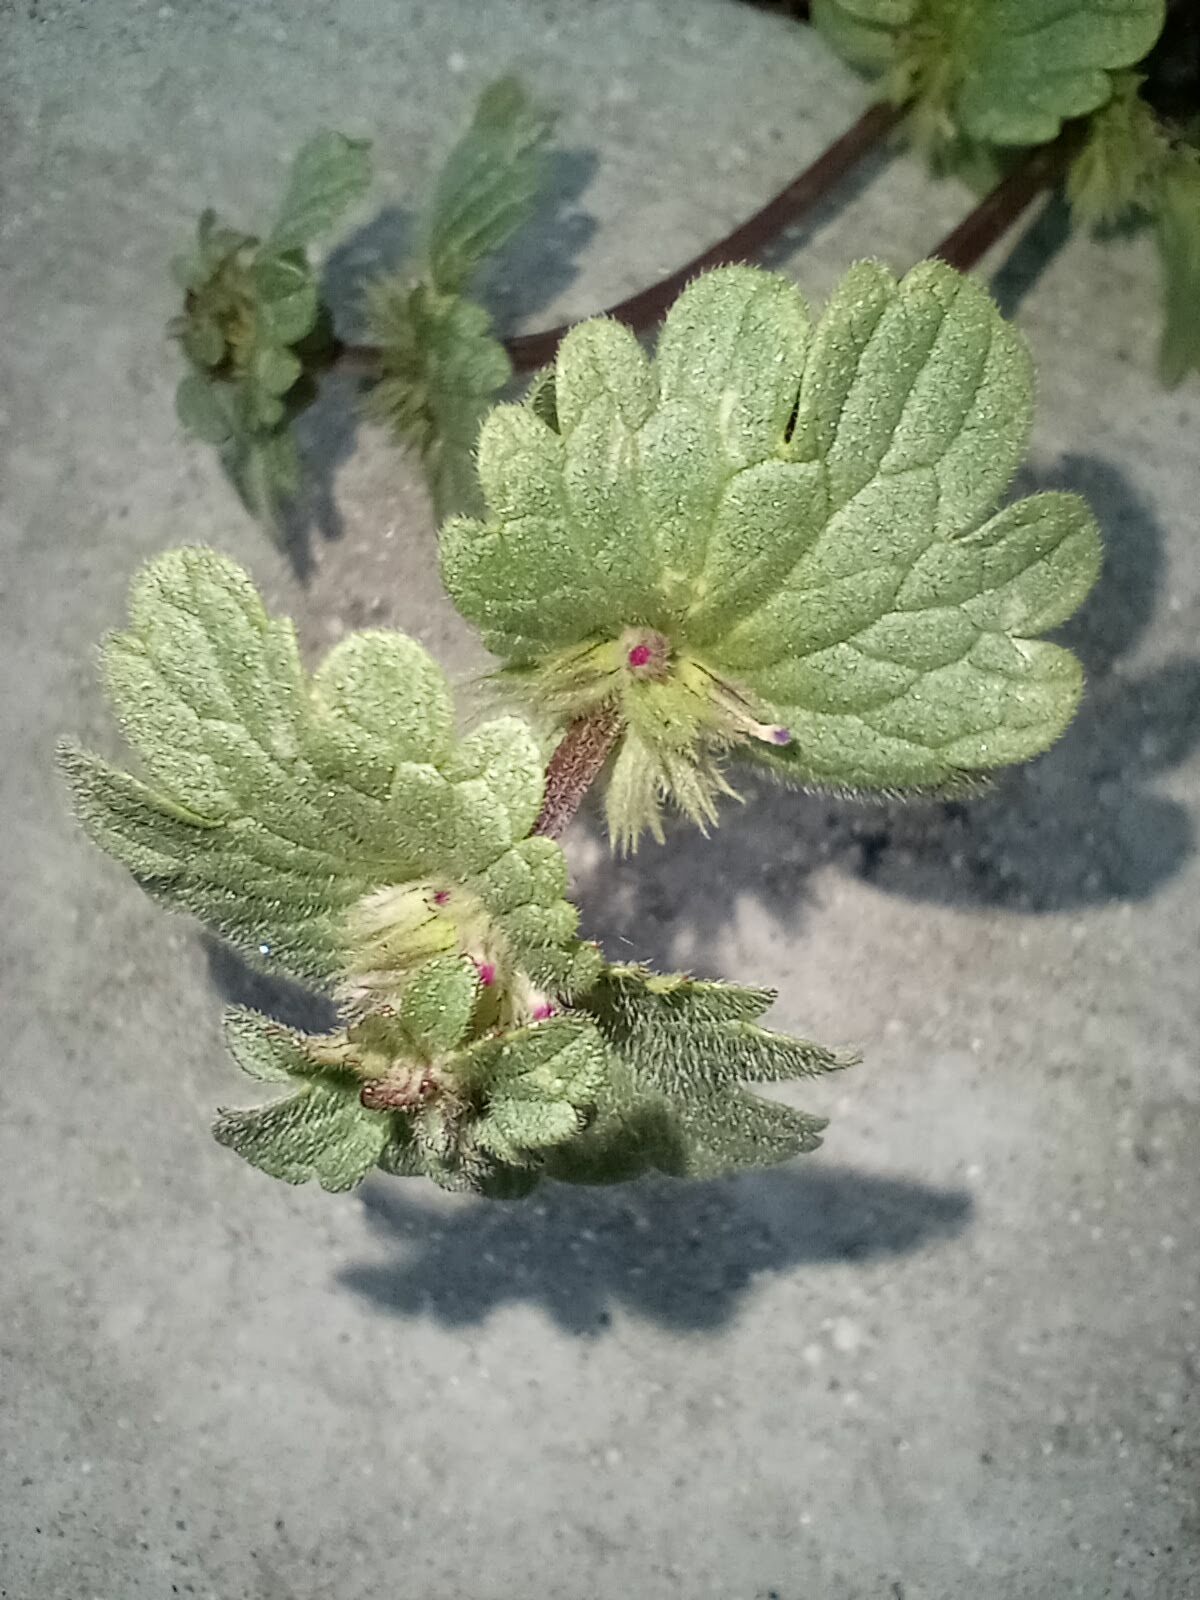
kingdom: Plantae
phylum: Tracheophyta
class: Magnoliopsida
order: Lamiales
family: Lamiaceae
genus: Lamium
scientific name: Lamium amplexicaule
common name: Henbit dead-nettle
